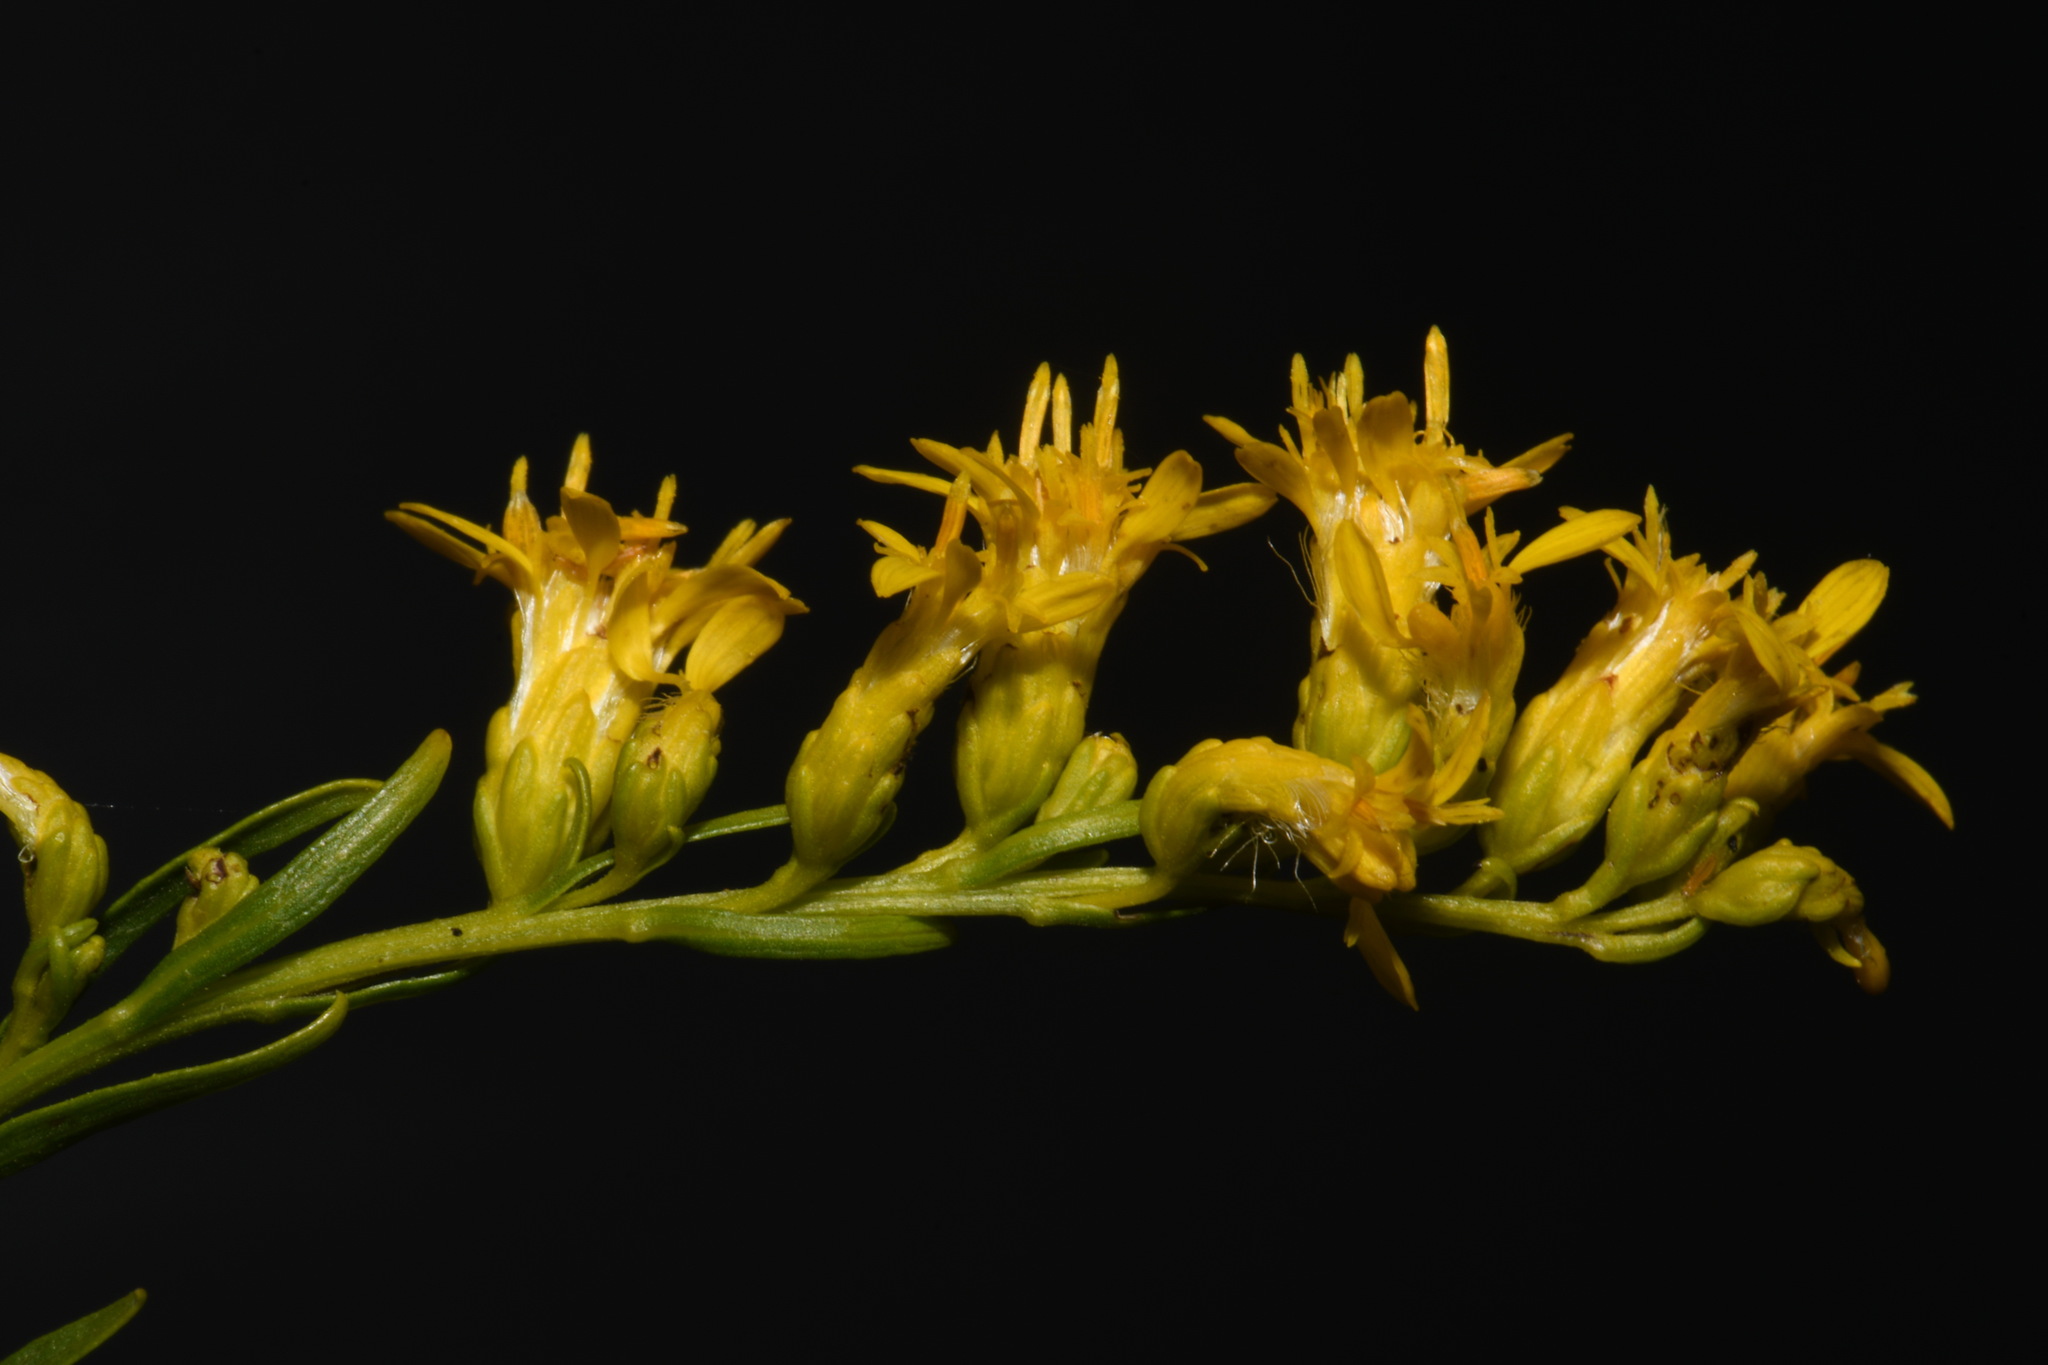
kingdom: Plantae
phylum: Tracheophyta
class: Magnoliopsida
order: Asterales
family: Asteraceae
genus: Solidago
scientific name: Solidago gattingeri
